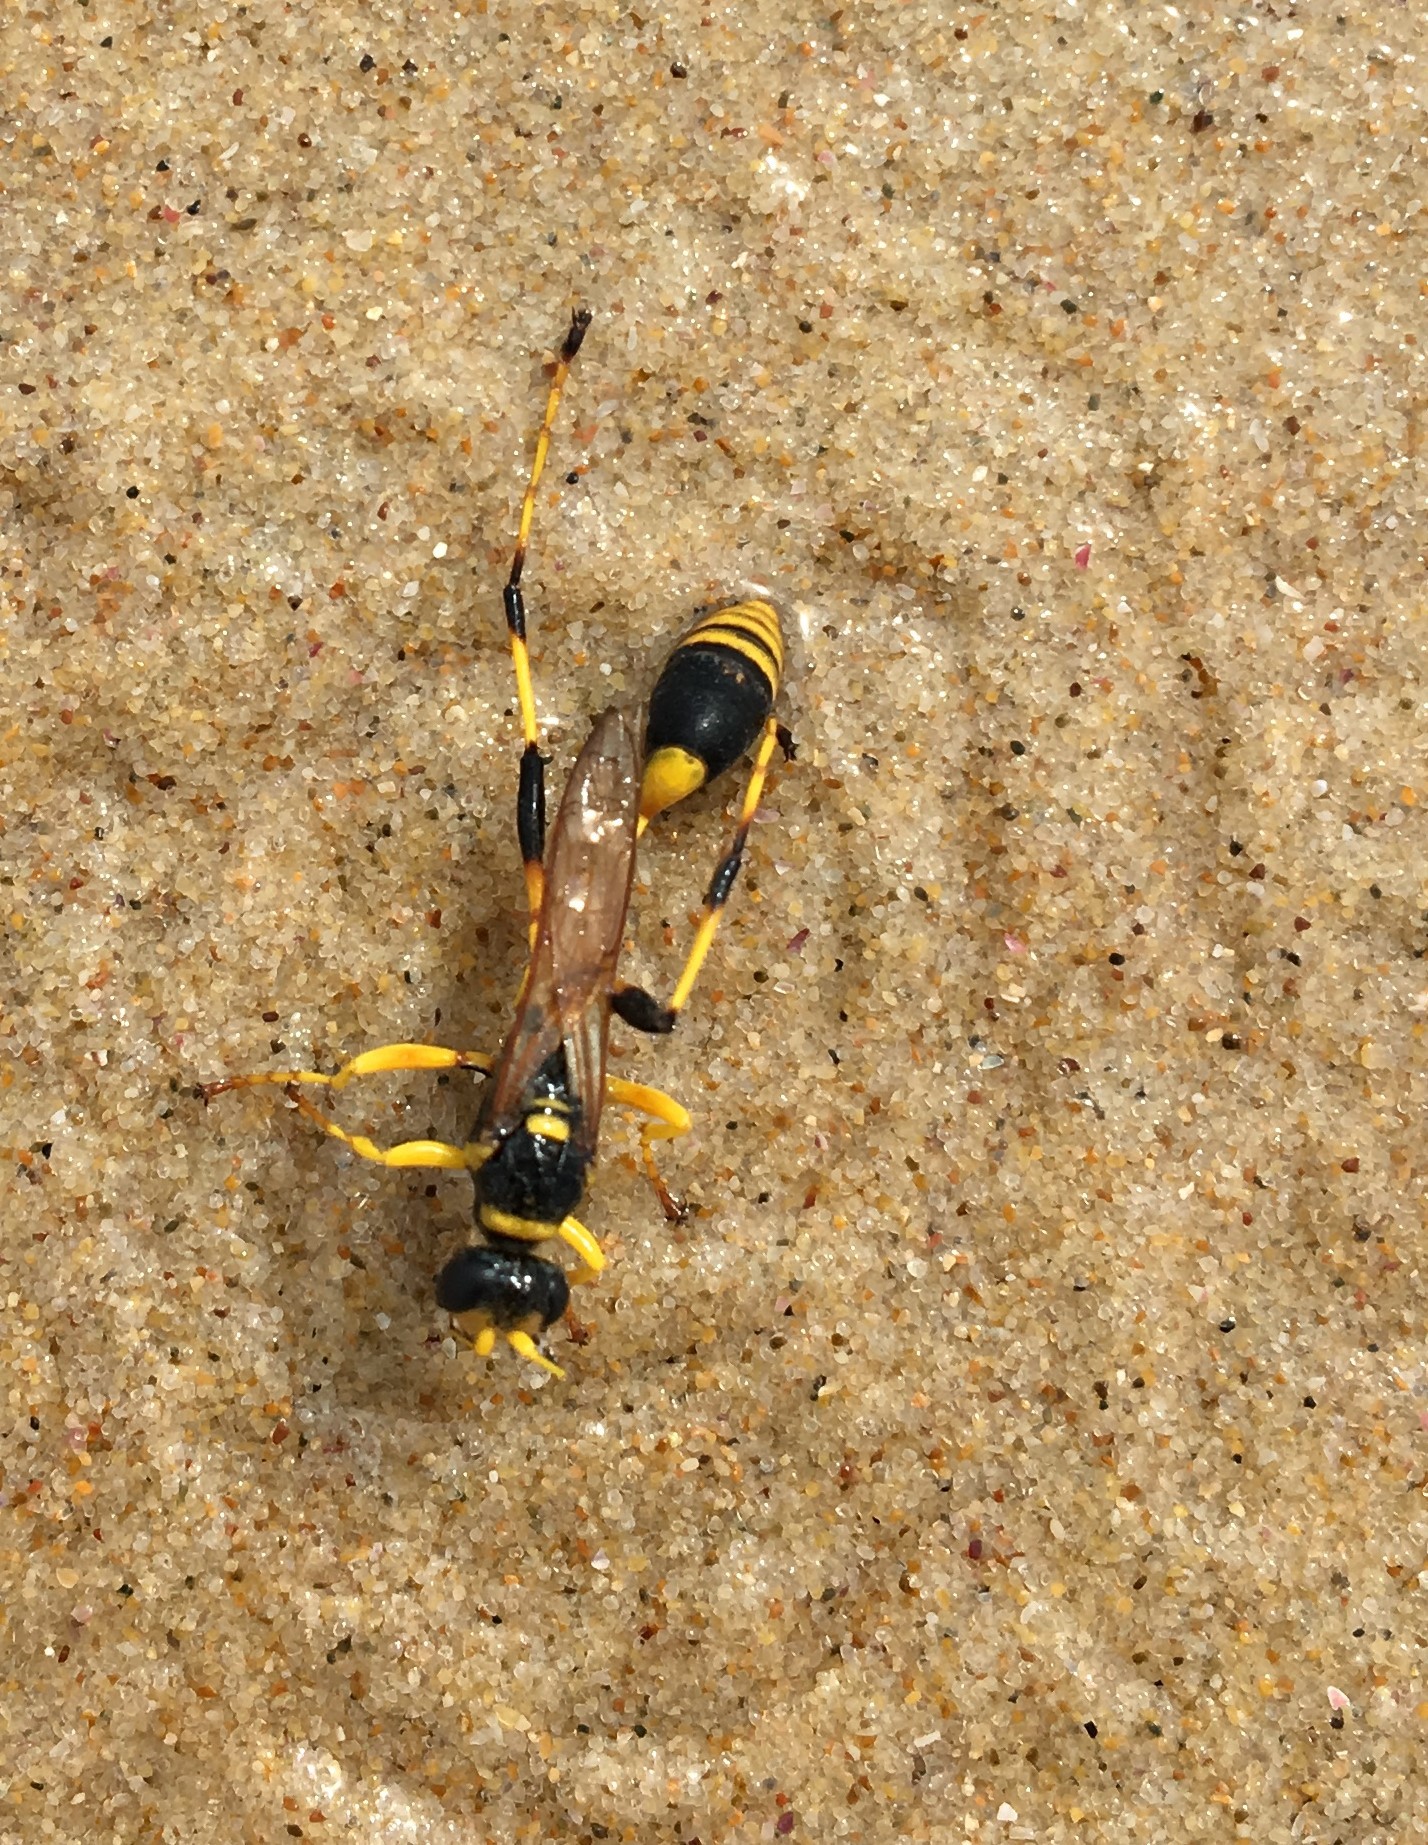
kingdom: Animalia
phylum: Arthropoda
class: Insecta
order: Hymenoptera
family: Sphecidae
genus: Sceliphron
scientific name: Sceliphron laetum
